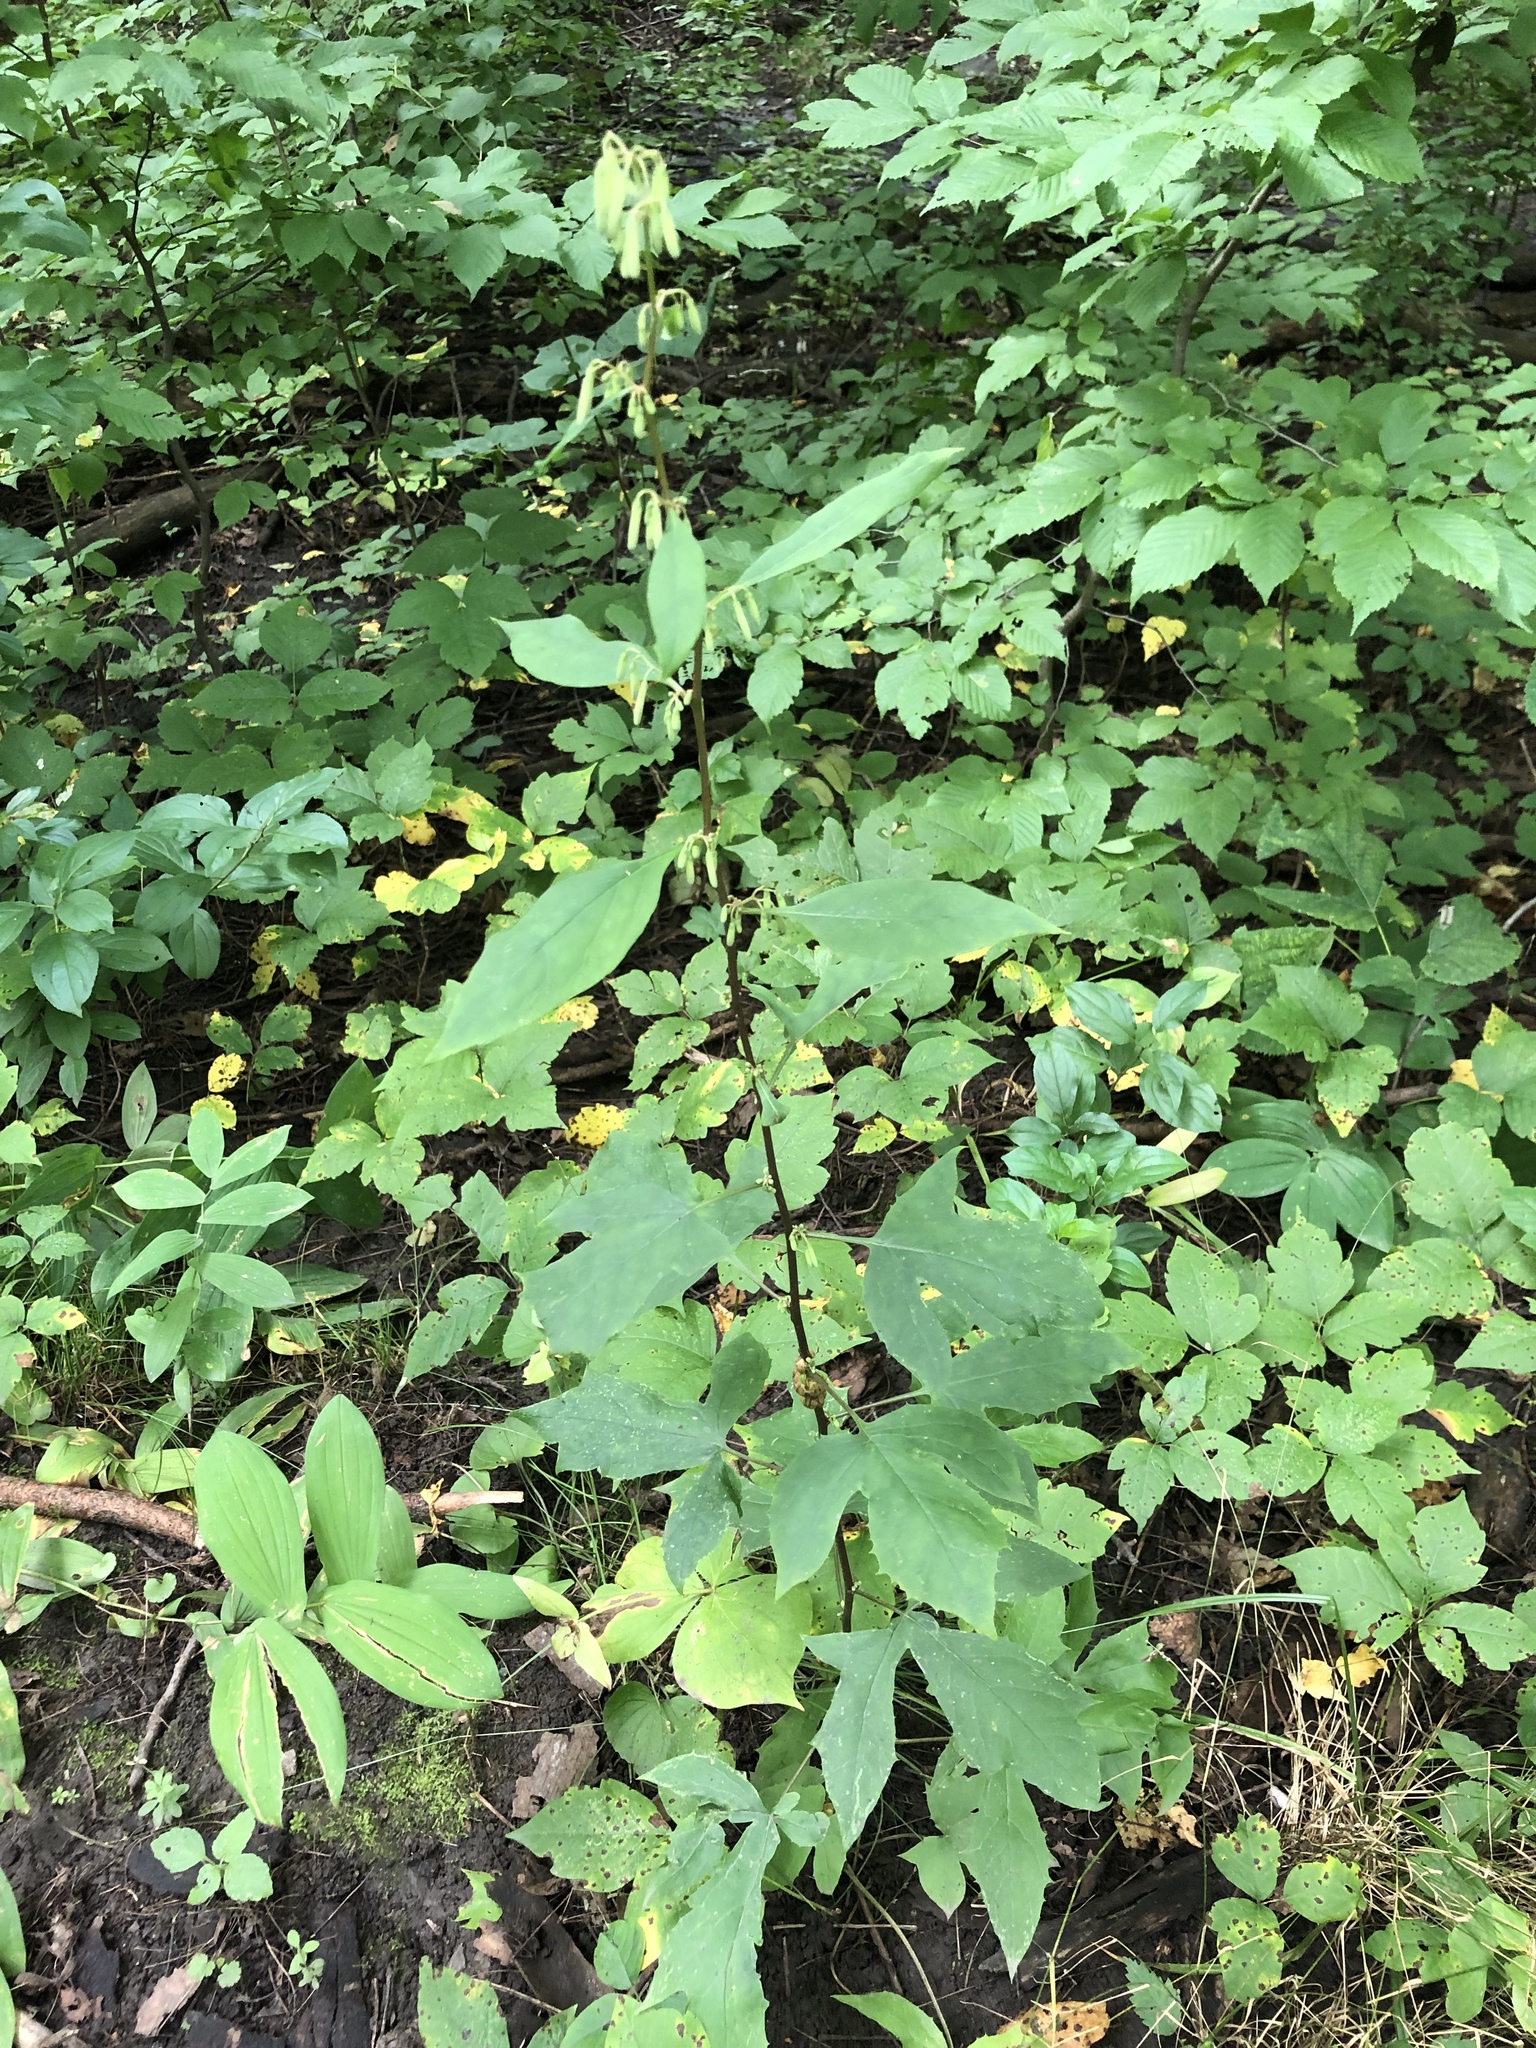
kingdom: Animalia
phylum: Arthropoda
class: Insecta
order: Hymenoptera
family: Cynipidae
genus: Aulacidea
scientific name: Aulacidea
